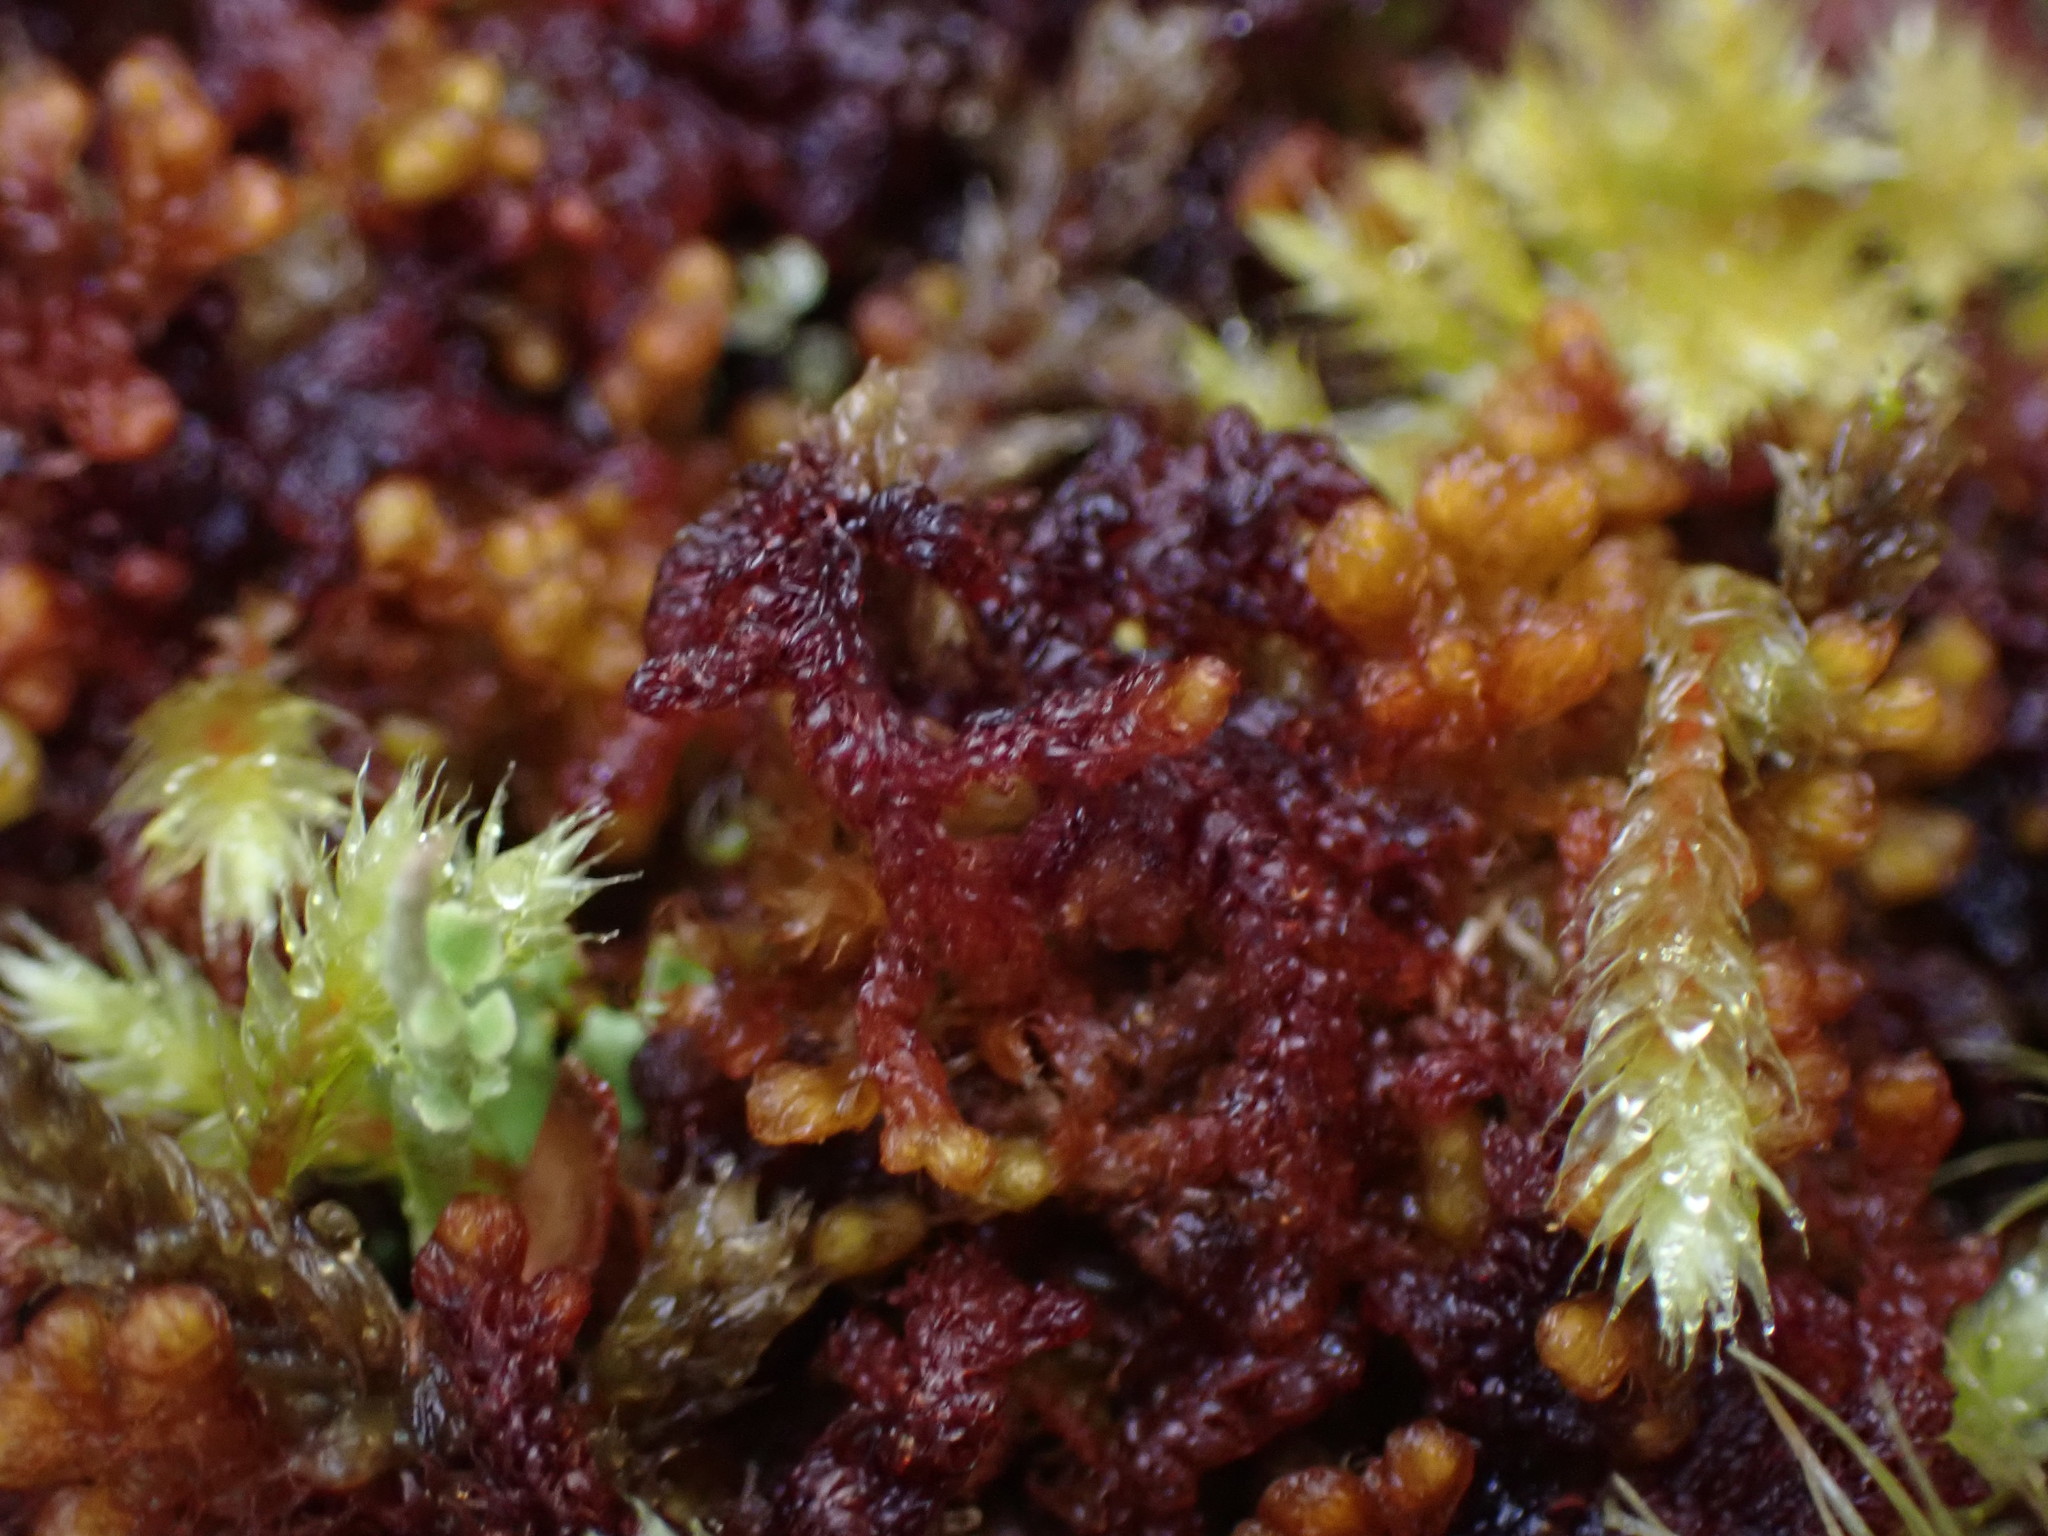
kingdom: Plantae
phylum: Marchantiophyta
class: Jungermanniopsida
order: Ptilidiales
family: Ptilidiaceae
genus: Ptilidium
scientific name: Ptilidium californicum
